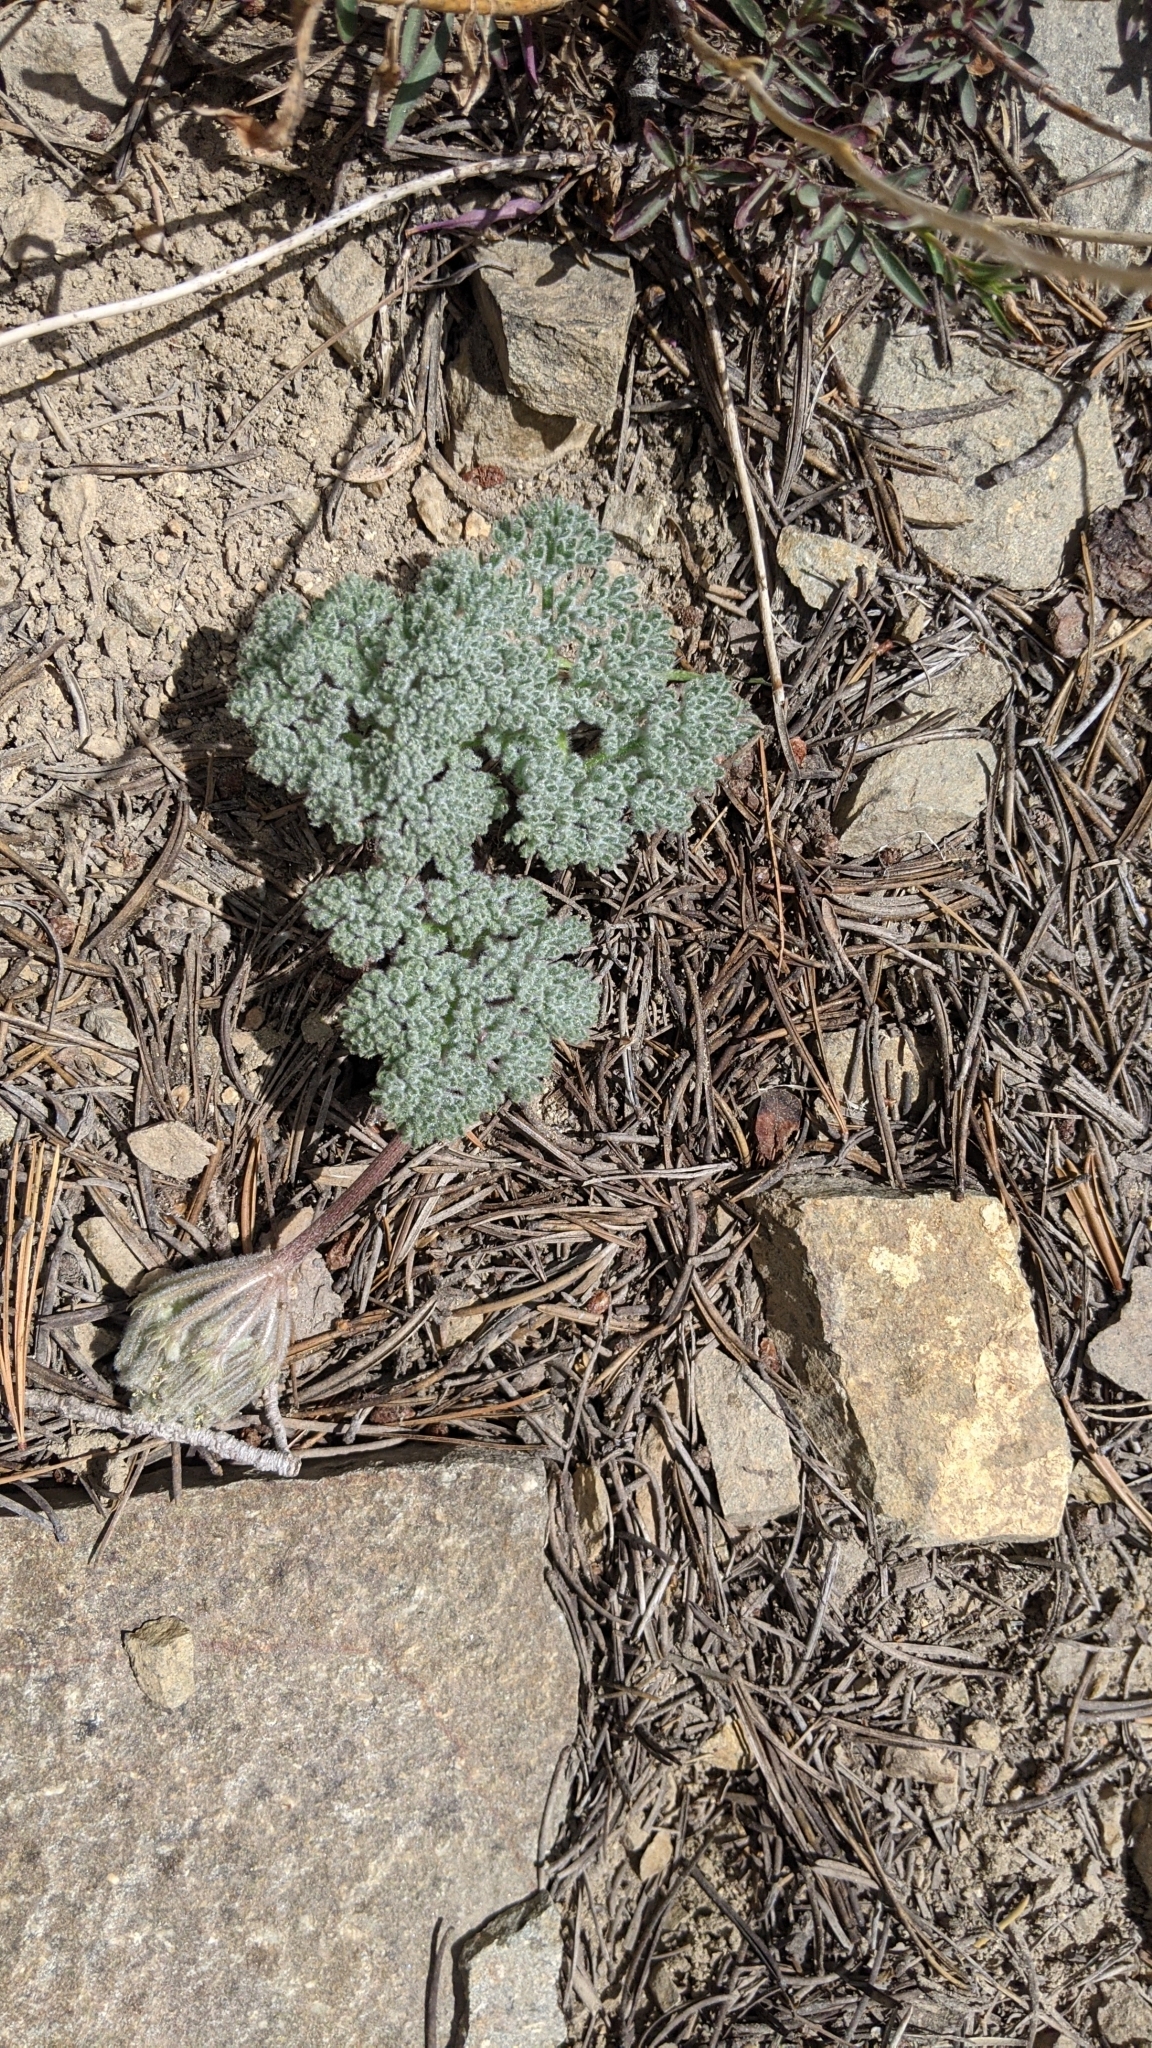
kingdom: Plantae
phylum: Tracheophyta
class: Magnoliopsida
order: Apiales
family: Apiaceae
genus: Oreonana
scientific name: Oreonana vestita
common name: Woolly mountain-parsley
